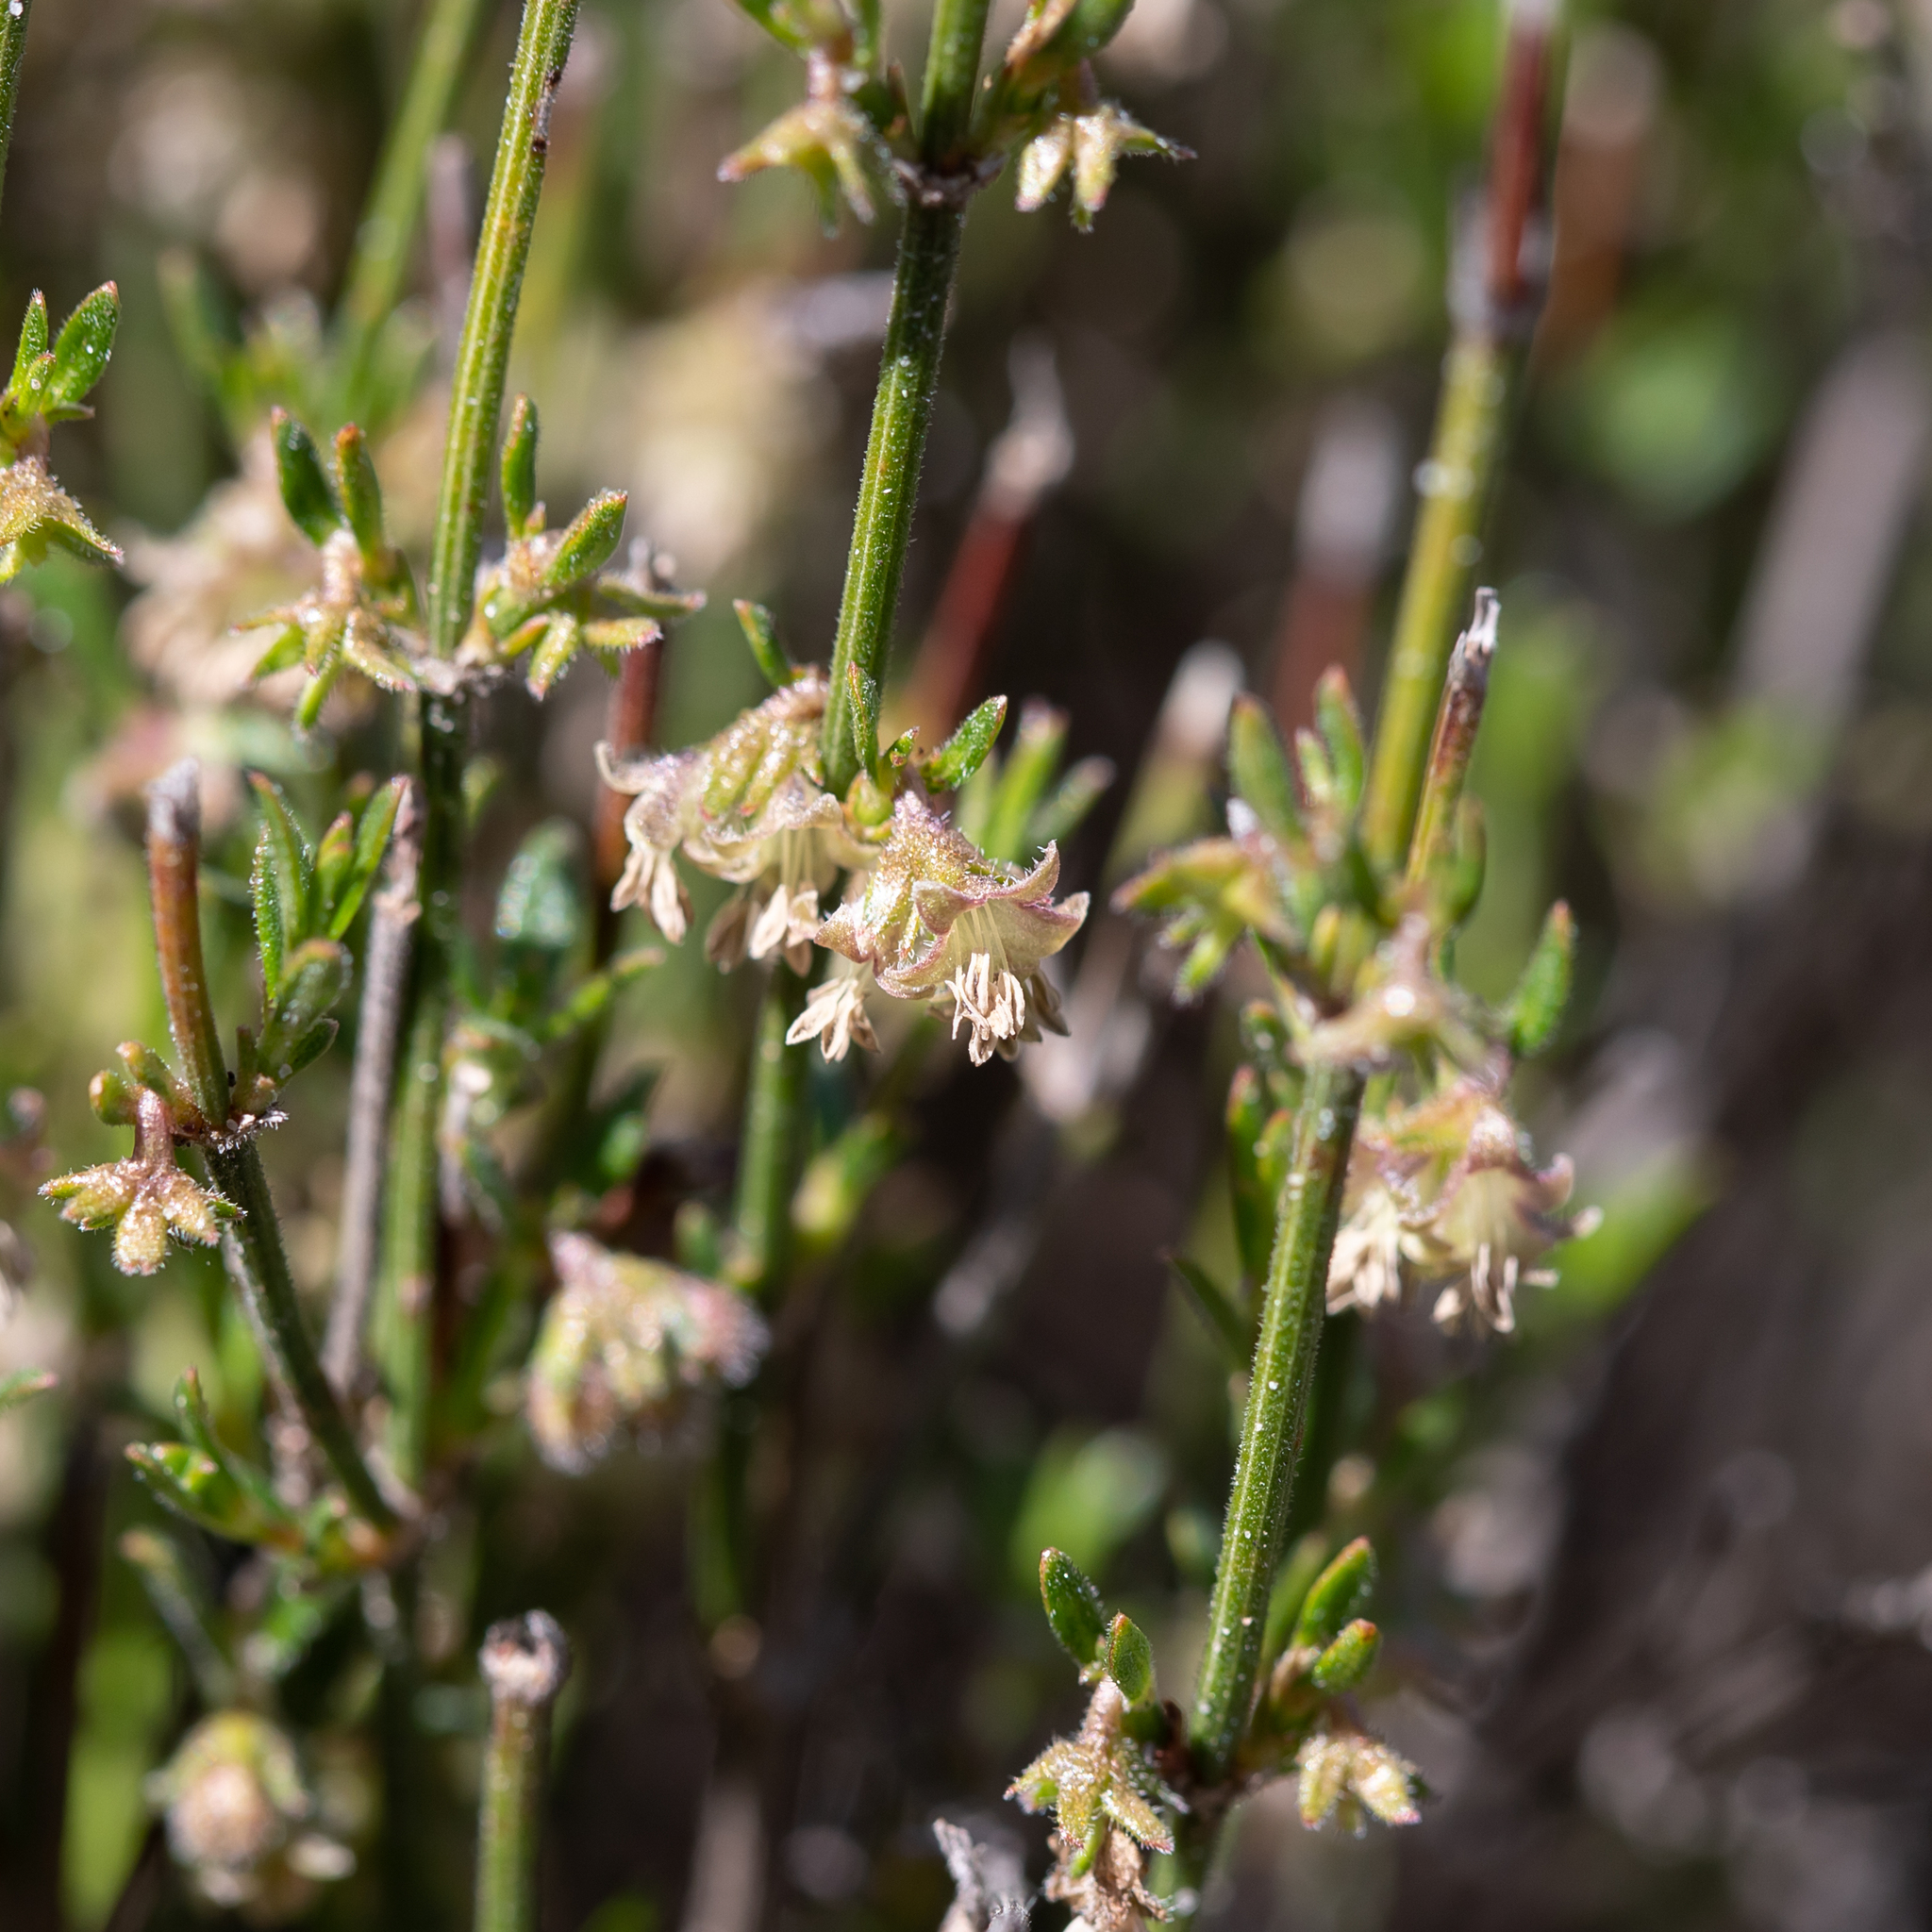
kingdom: Plantae
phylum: Tracheophyta
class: Magnoliopsida
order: Gentianales
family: Rubiaceae
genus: Opercularia
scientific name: Opercularia turpis
